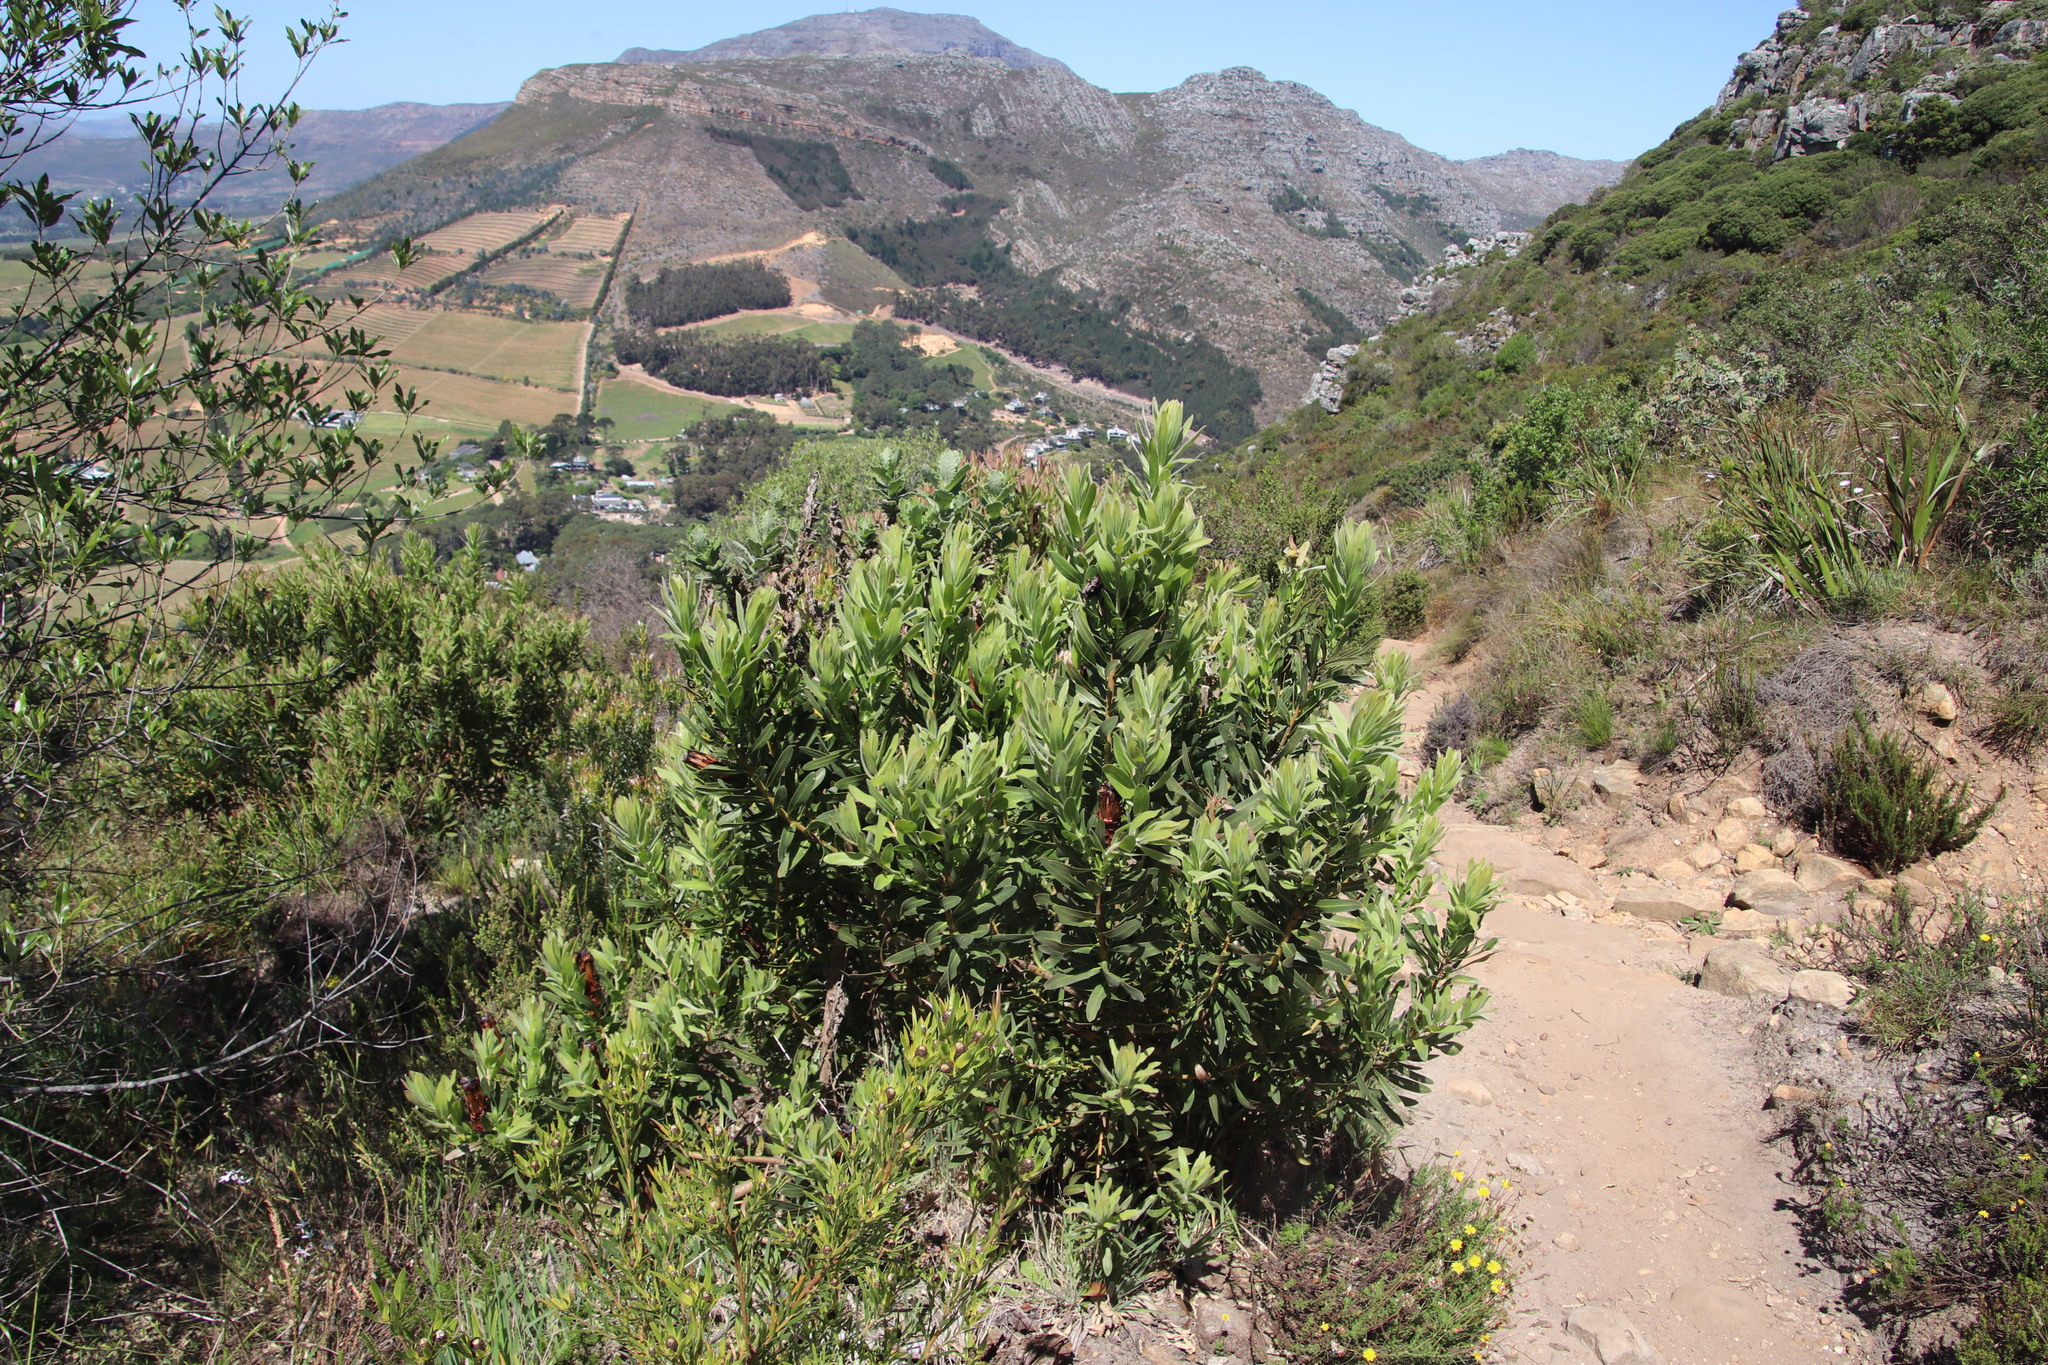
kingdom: Plantae
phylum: Tracheophyta
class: Magnoliopsida
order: Proteales
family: Proteaceae
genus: Protea
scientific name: Protea lepidocarpodendron
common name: Black-bearded protea
